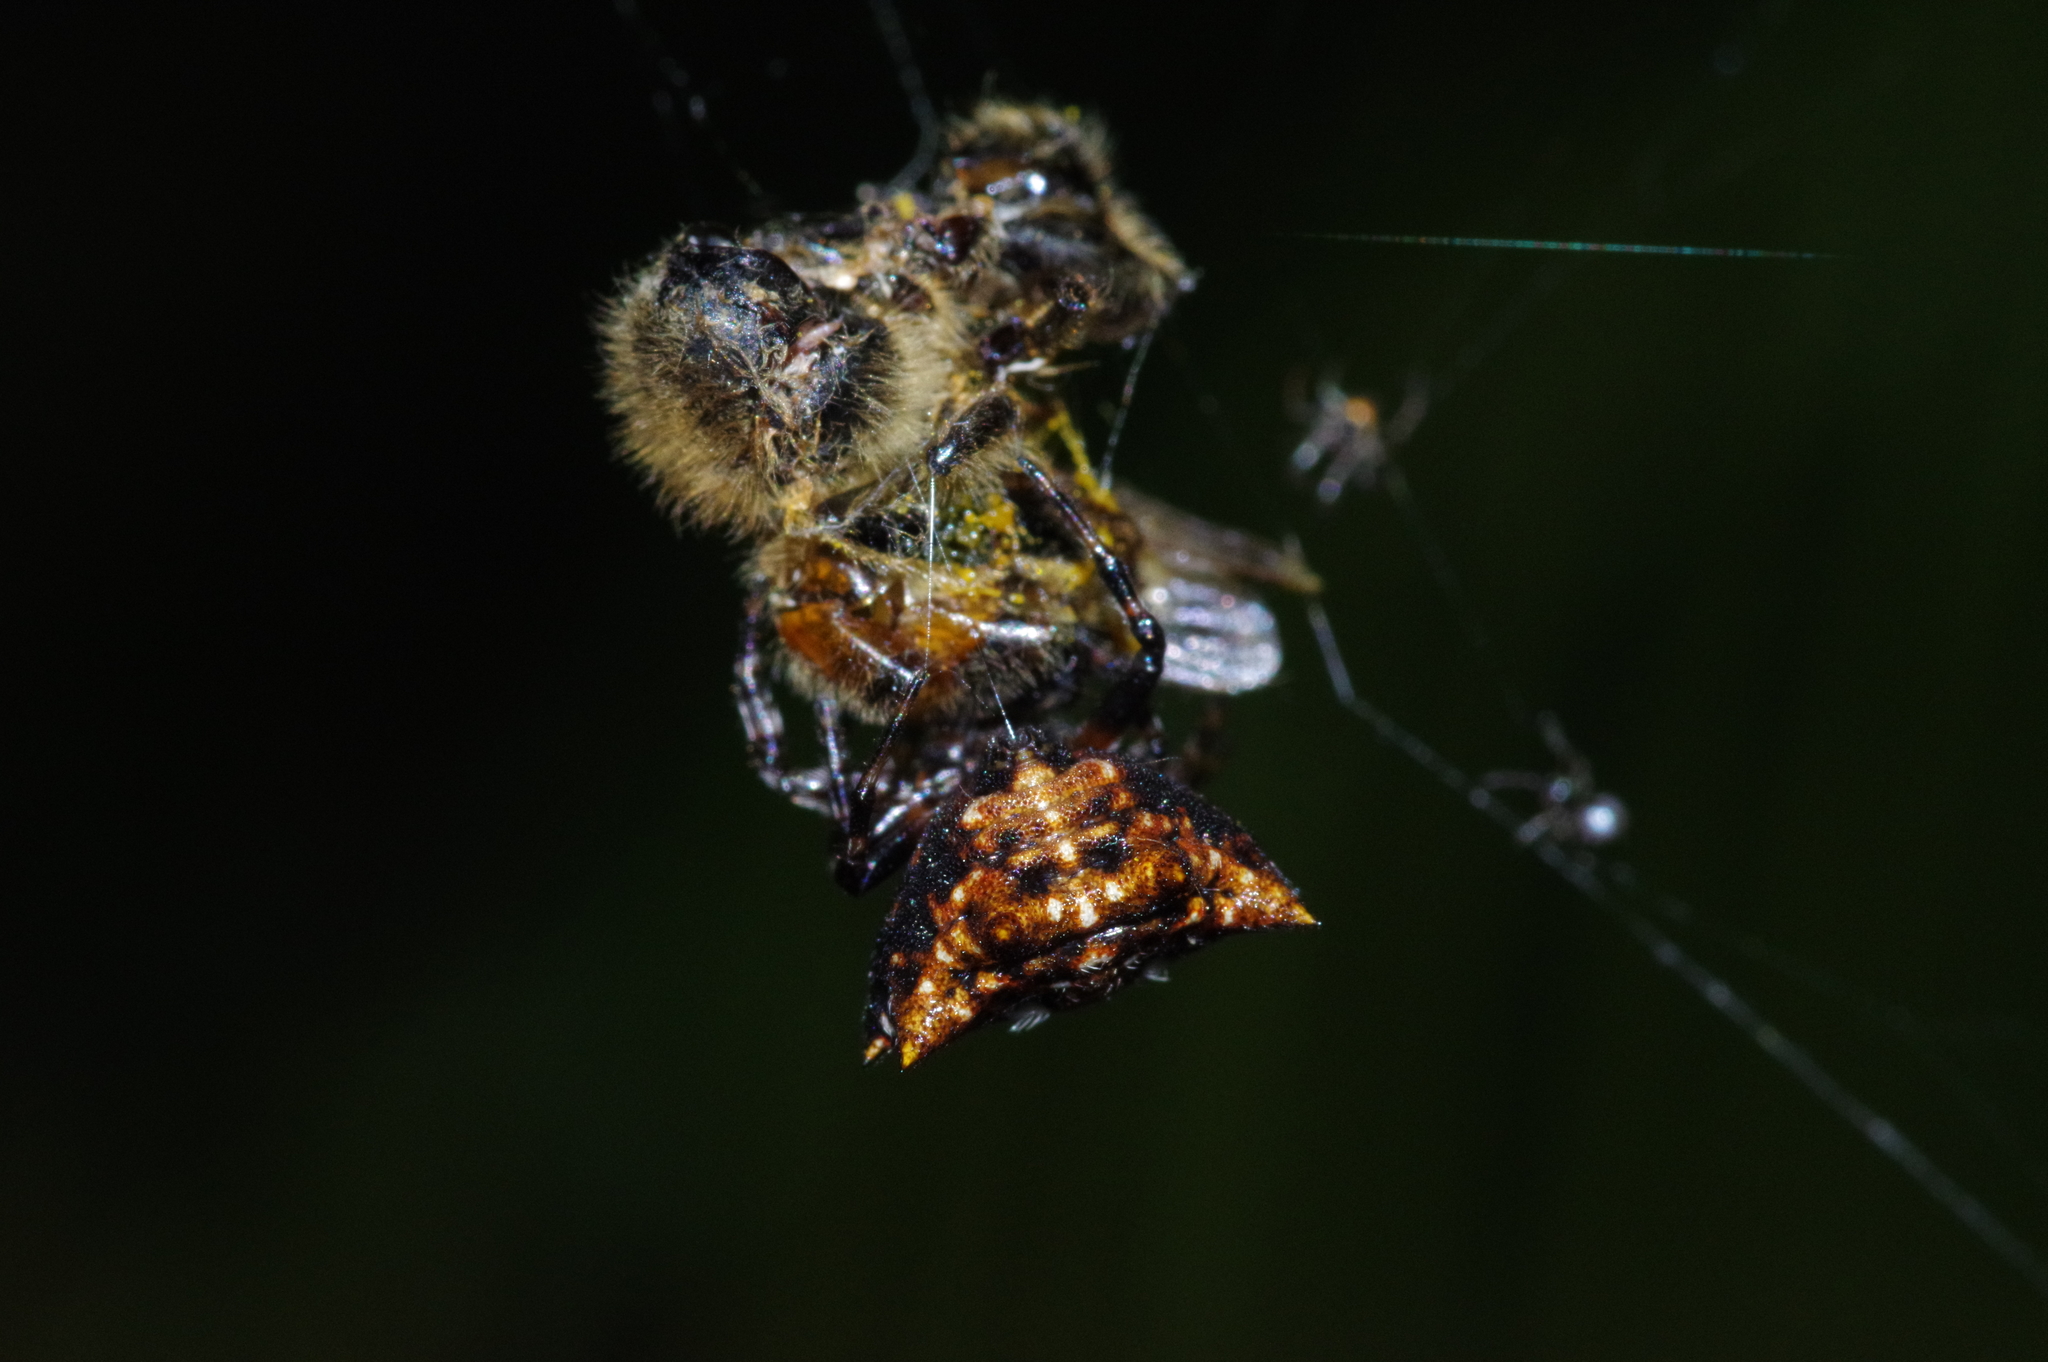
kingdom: Animalia
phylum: Arthropoda
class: Arachnida
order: Araneae
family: Araneidae
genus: Thelacantha
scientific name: Thelacantha brevispina
